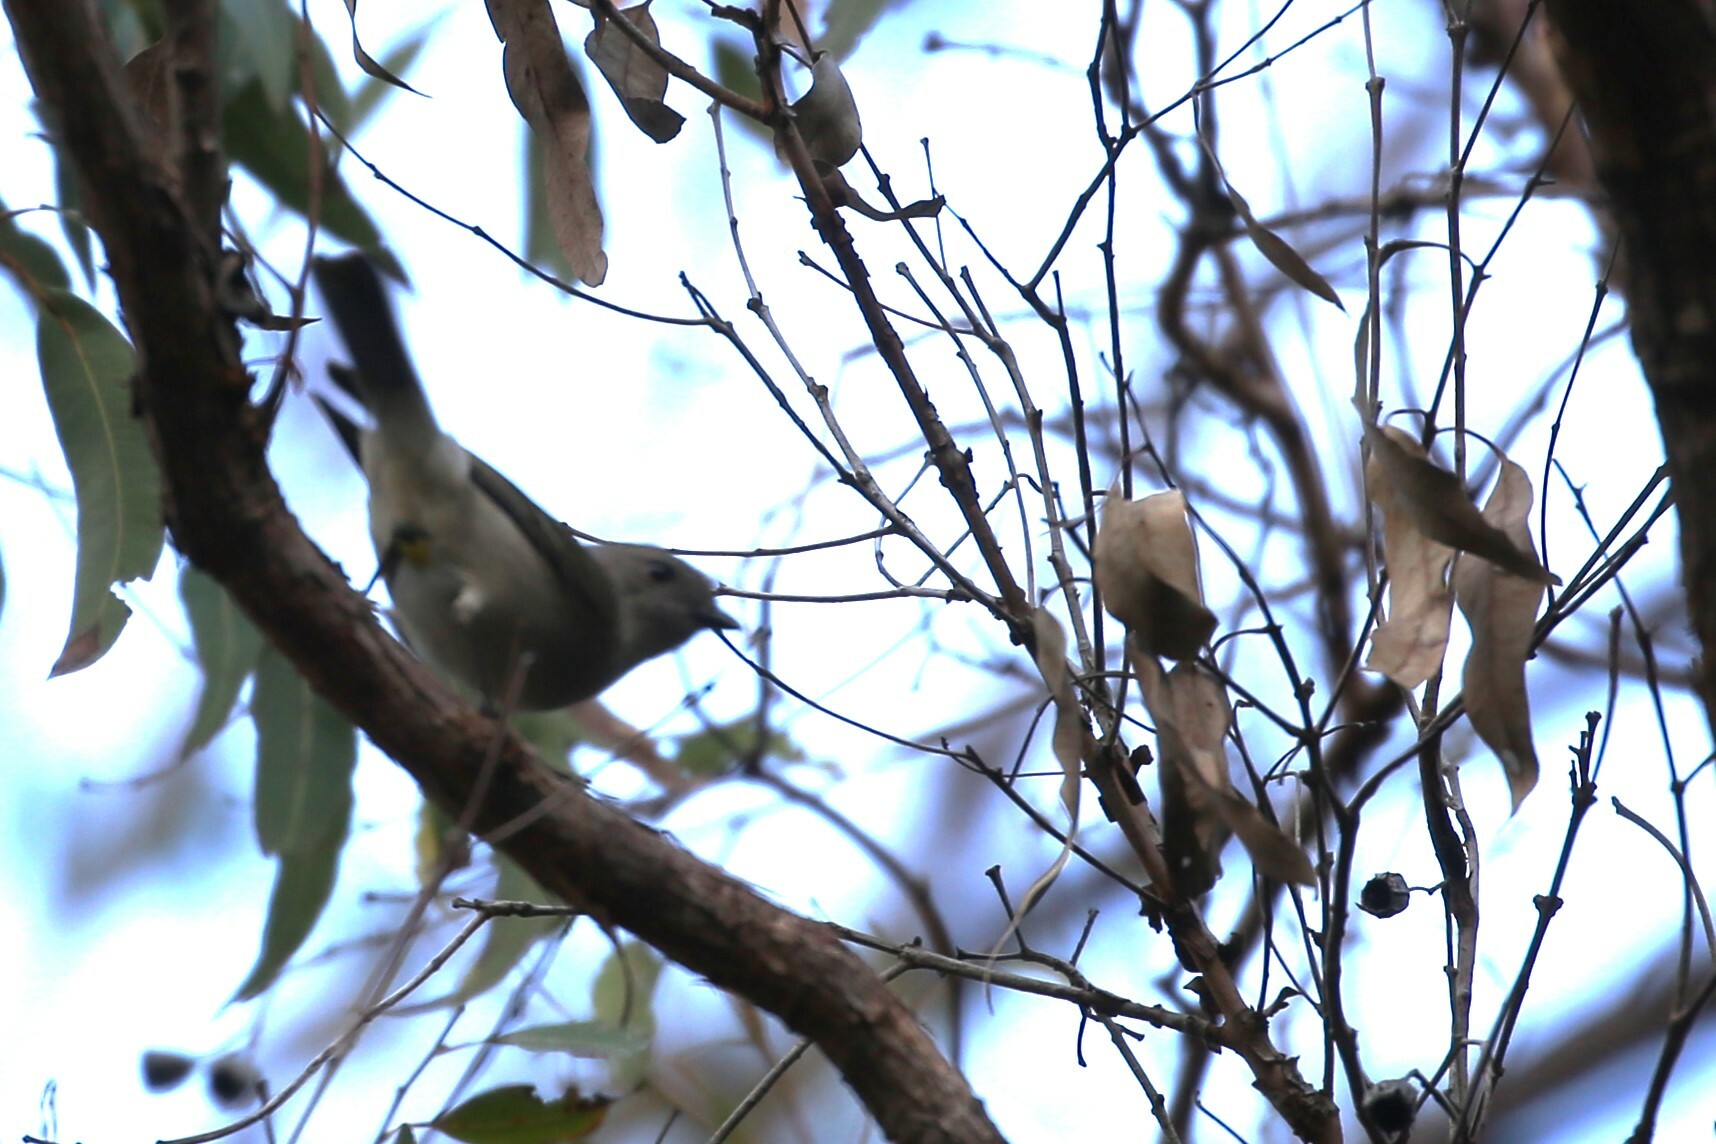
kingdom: Animalia
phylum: Chordata
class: Aves
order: Passeriformes
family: Pachycephalidae
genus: Pachycephala
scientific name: Pachycephala pectoralis
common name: Australian golden whistler
